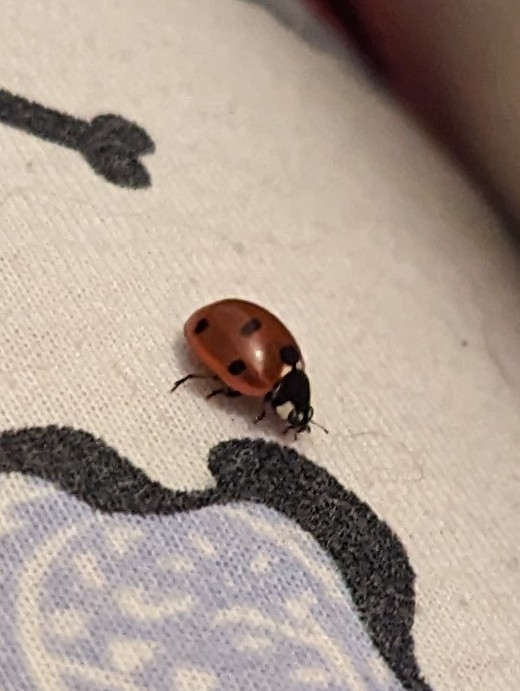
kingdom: Animalia
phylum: Arthropoda
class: Insecta
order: Coleoptera
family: Coccinellidae
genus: Coccinella
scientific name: Coccinella septempunctata
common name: Sevenspotted lady beetle
